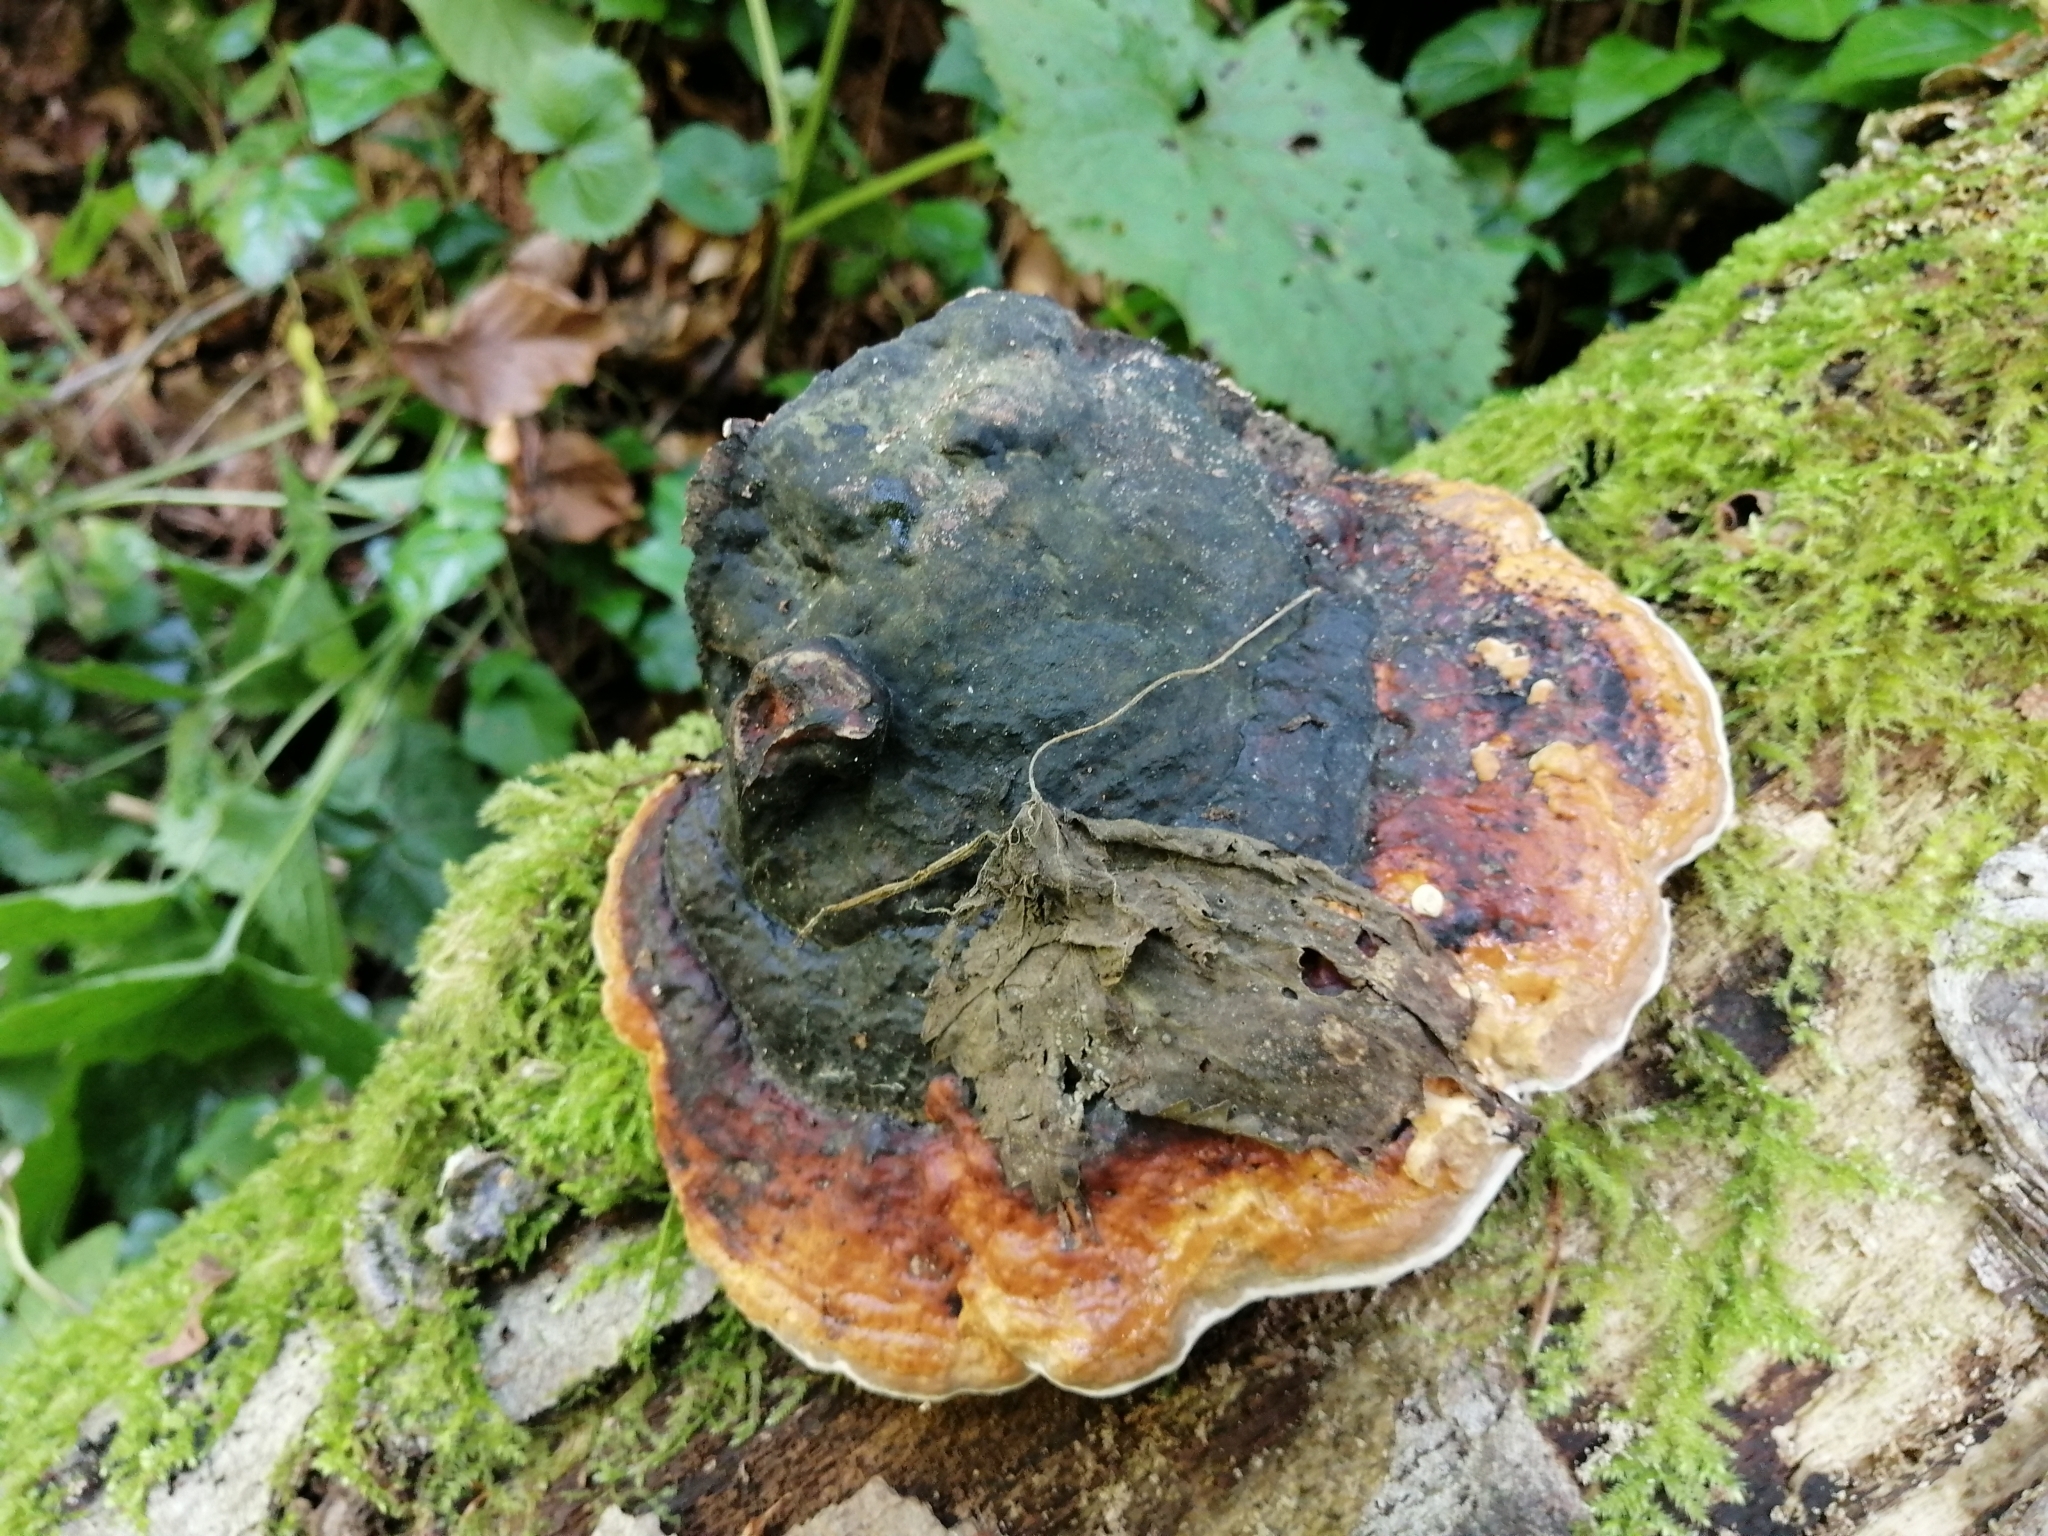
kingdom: Fungi
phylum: Basidiomycota
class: Agaricomycetes
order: Polyporales
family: Fomitopsidaceae
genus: Fomitopsis
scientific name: Fomitopsis pinicola
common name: Red-belted bracket
